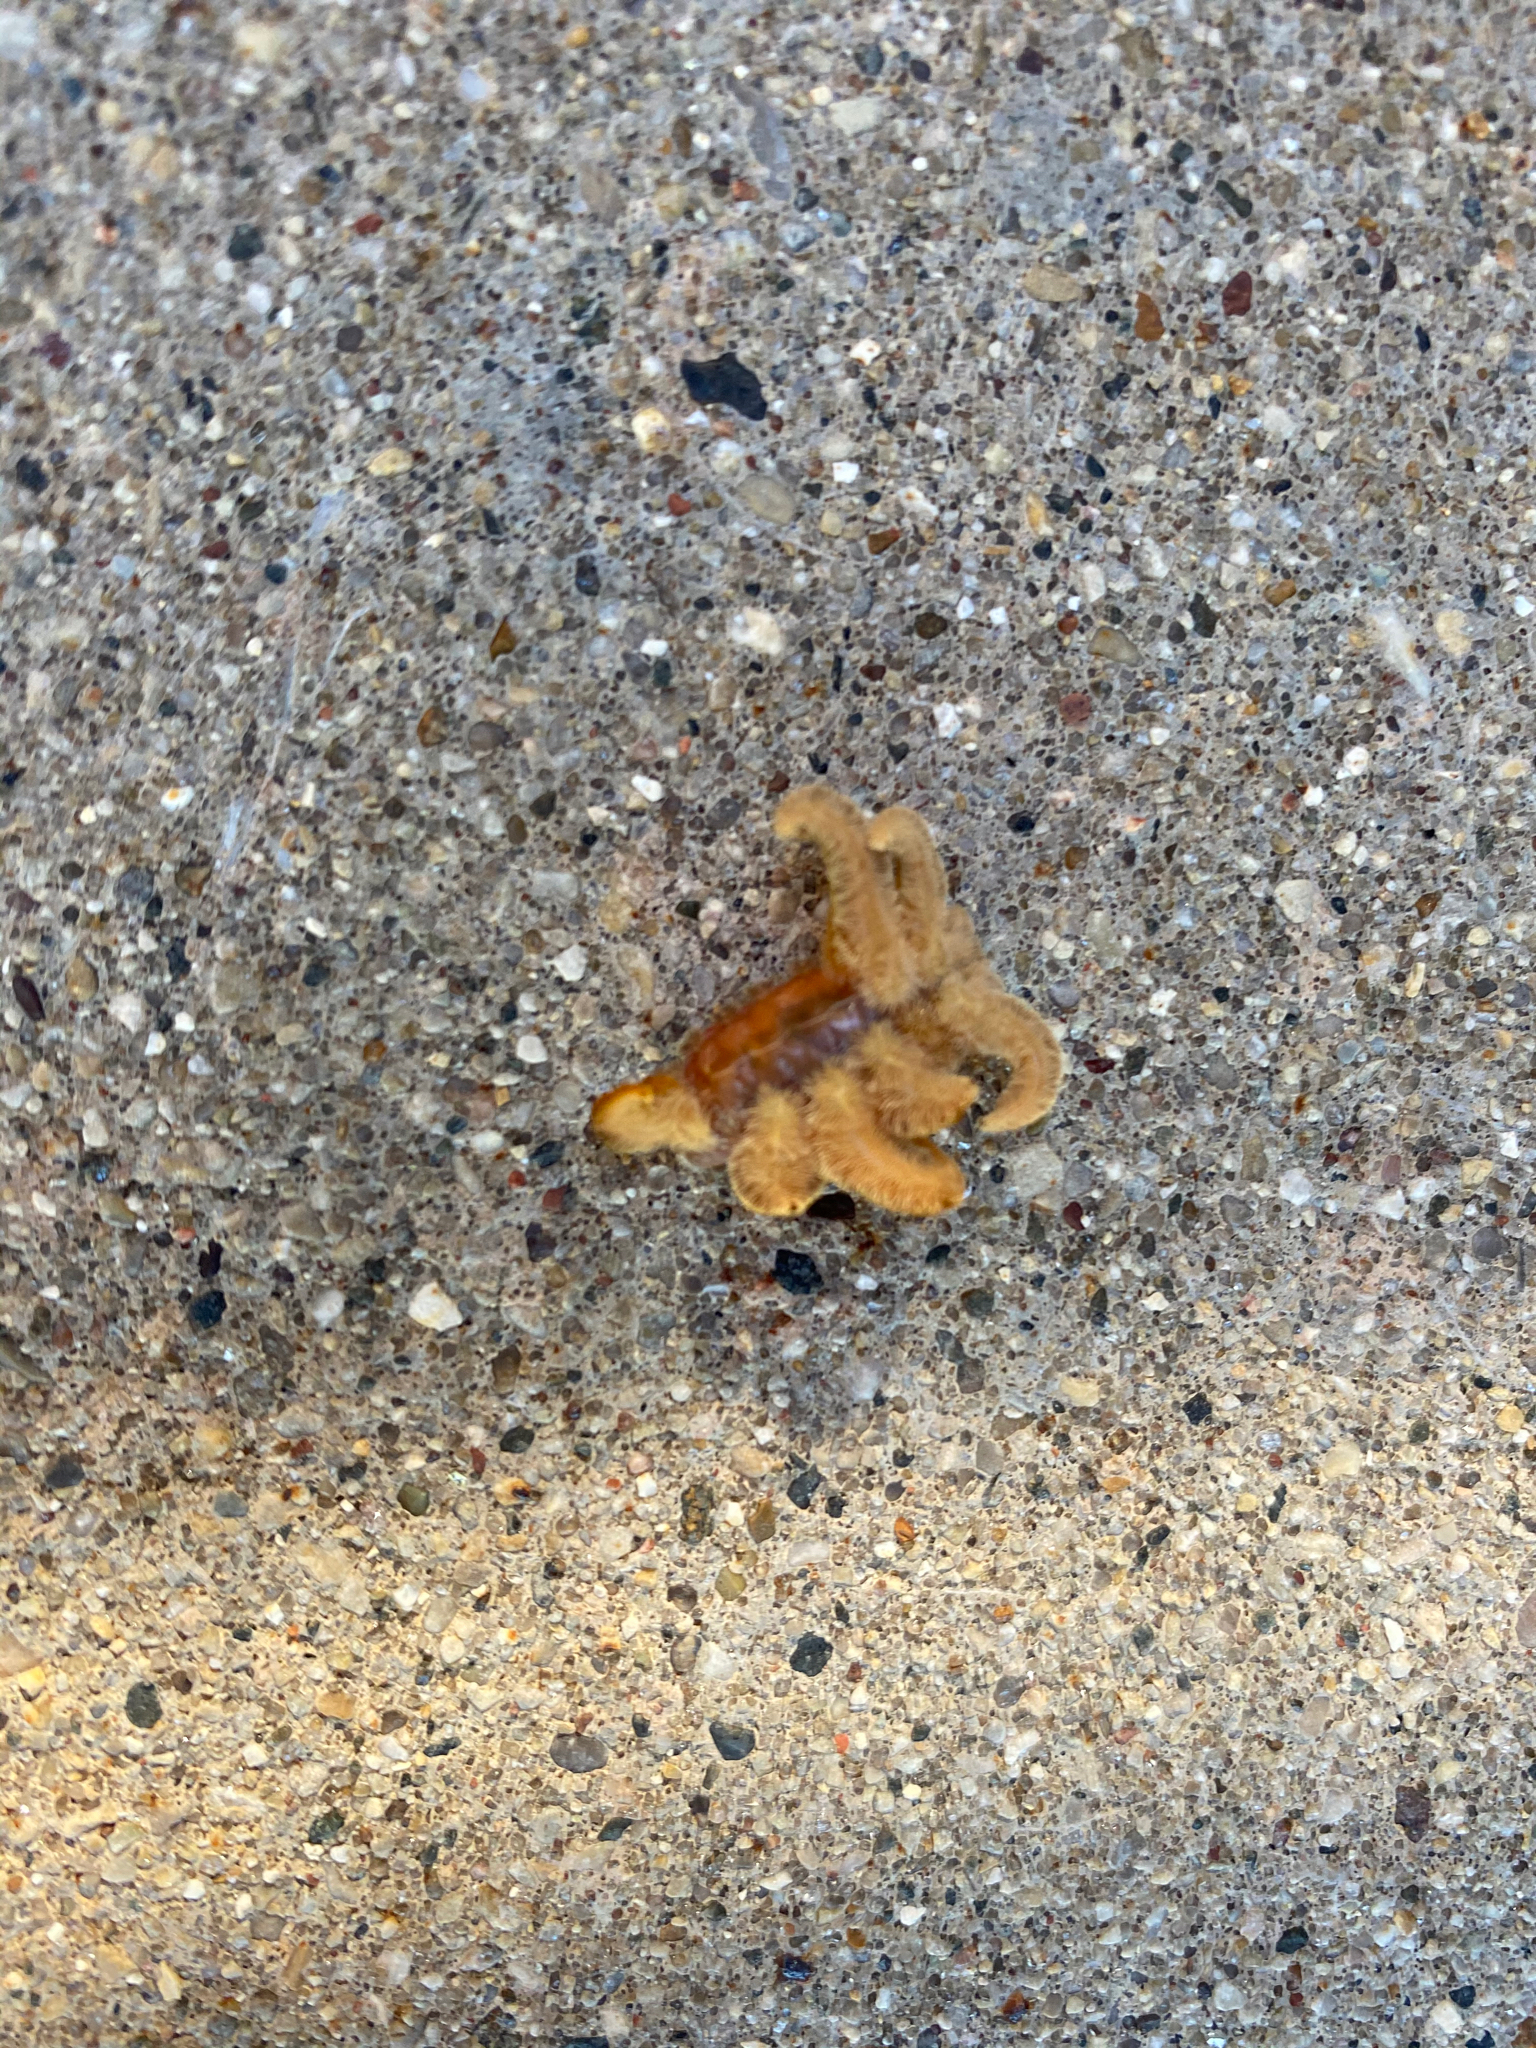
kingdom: Animalia
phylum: Arthropoda
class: Insecta
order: Lepidoptera
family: Limacodidae
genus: Phobetron
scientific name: Phobetron pithecium
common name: Hag moth
